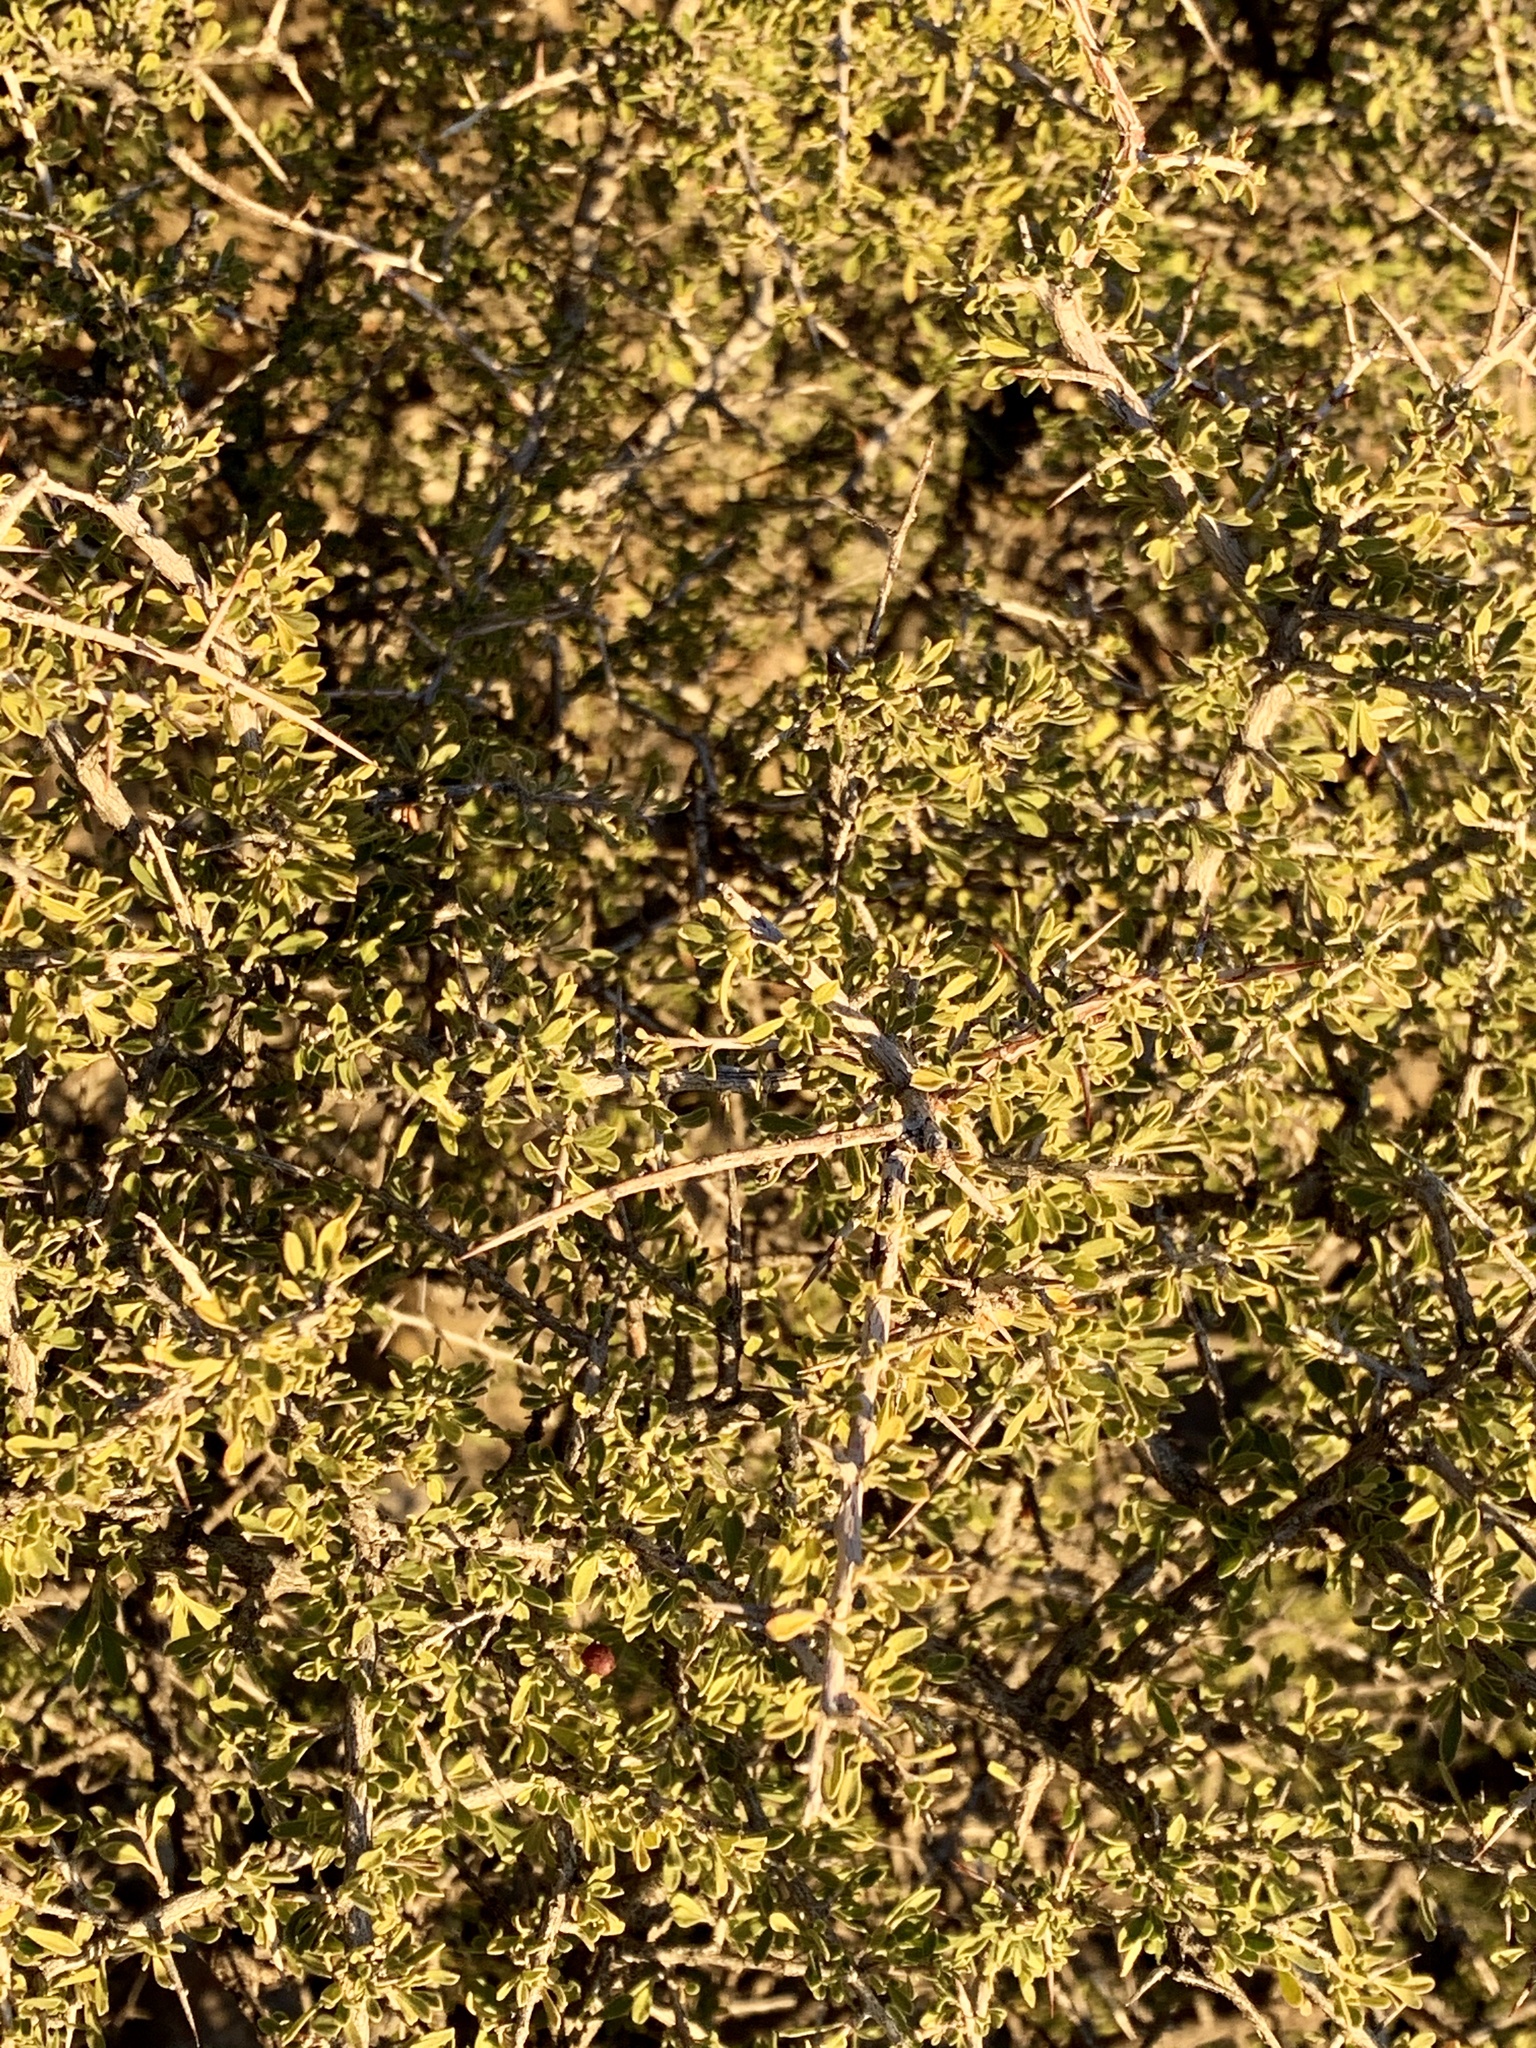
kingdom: Plantae
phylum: Tracheophyta
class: Magnoliopsida
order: Rosales
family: Rhamnaceae
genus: Condalia
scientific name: Condalia warnockii
